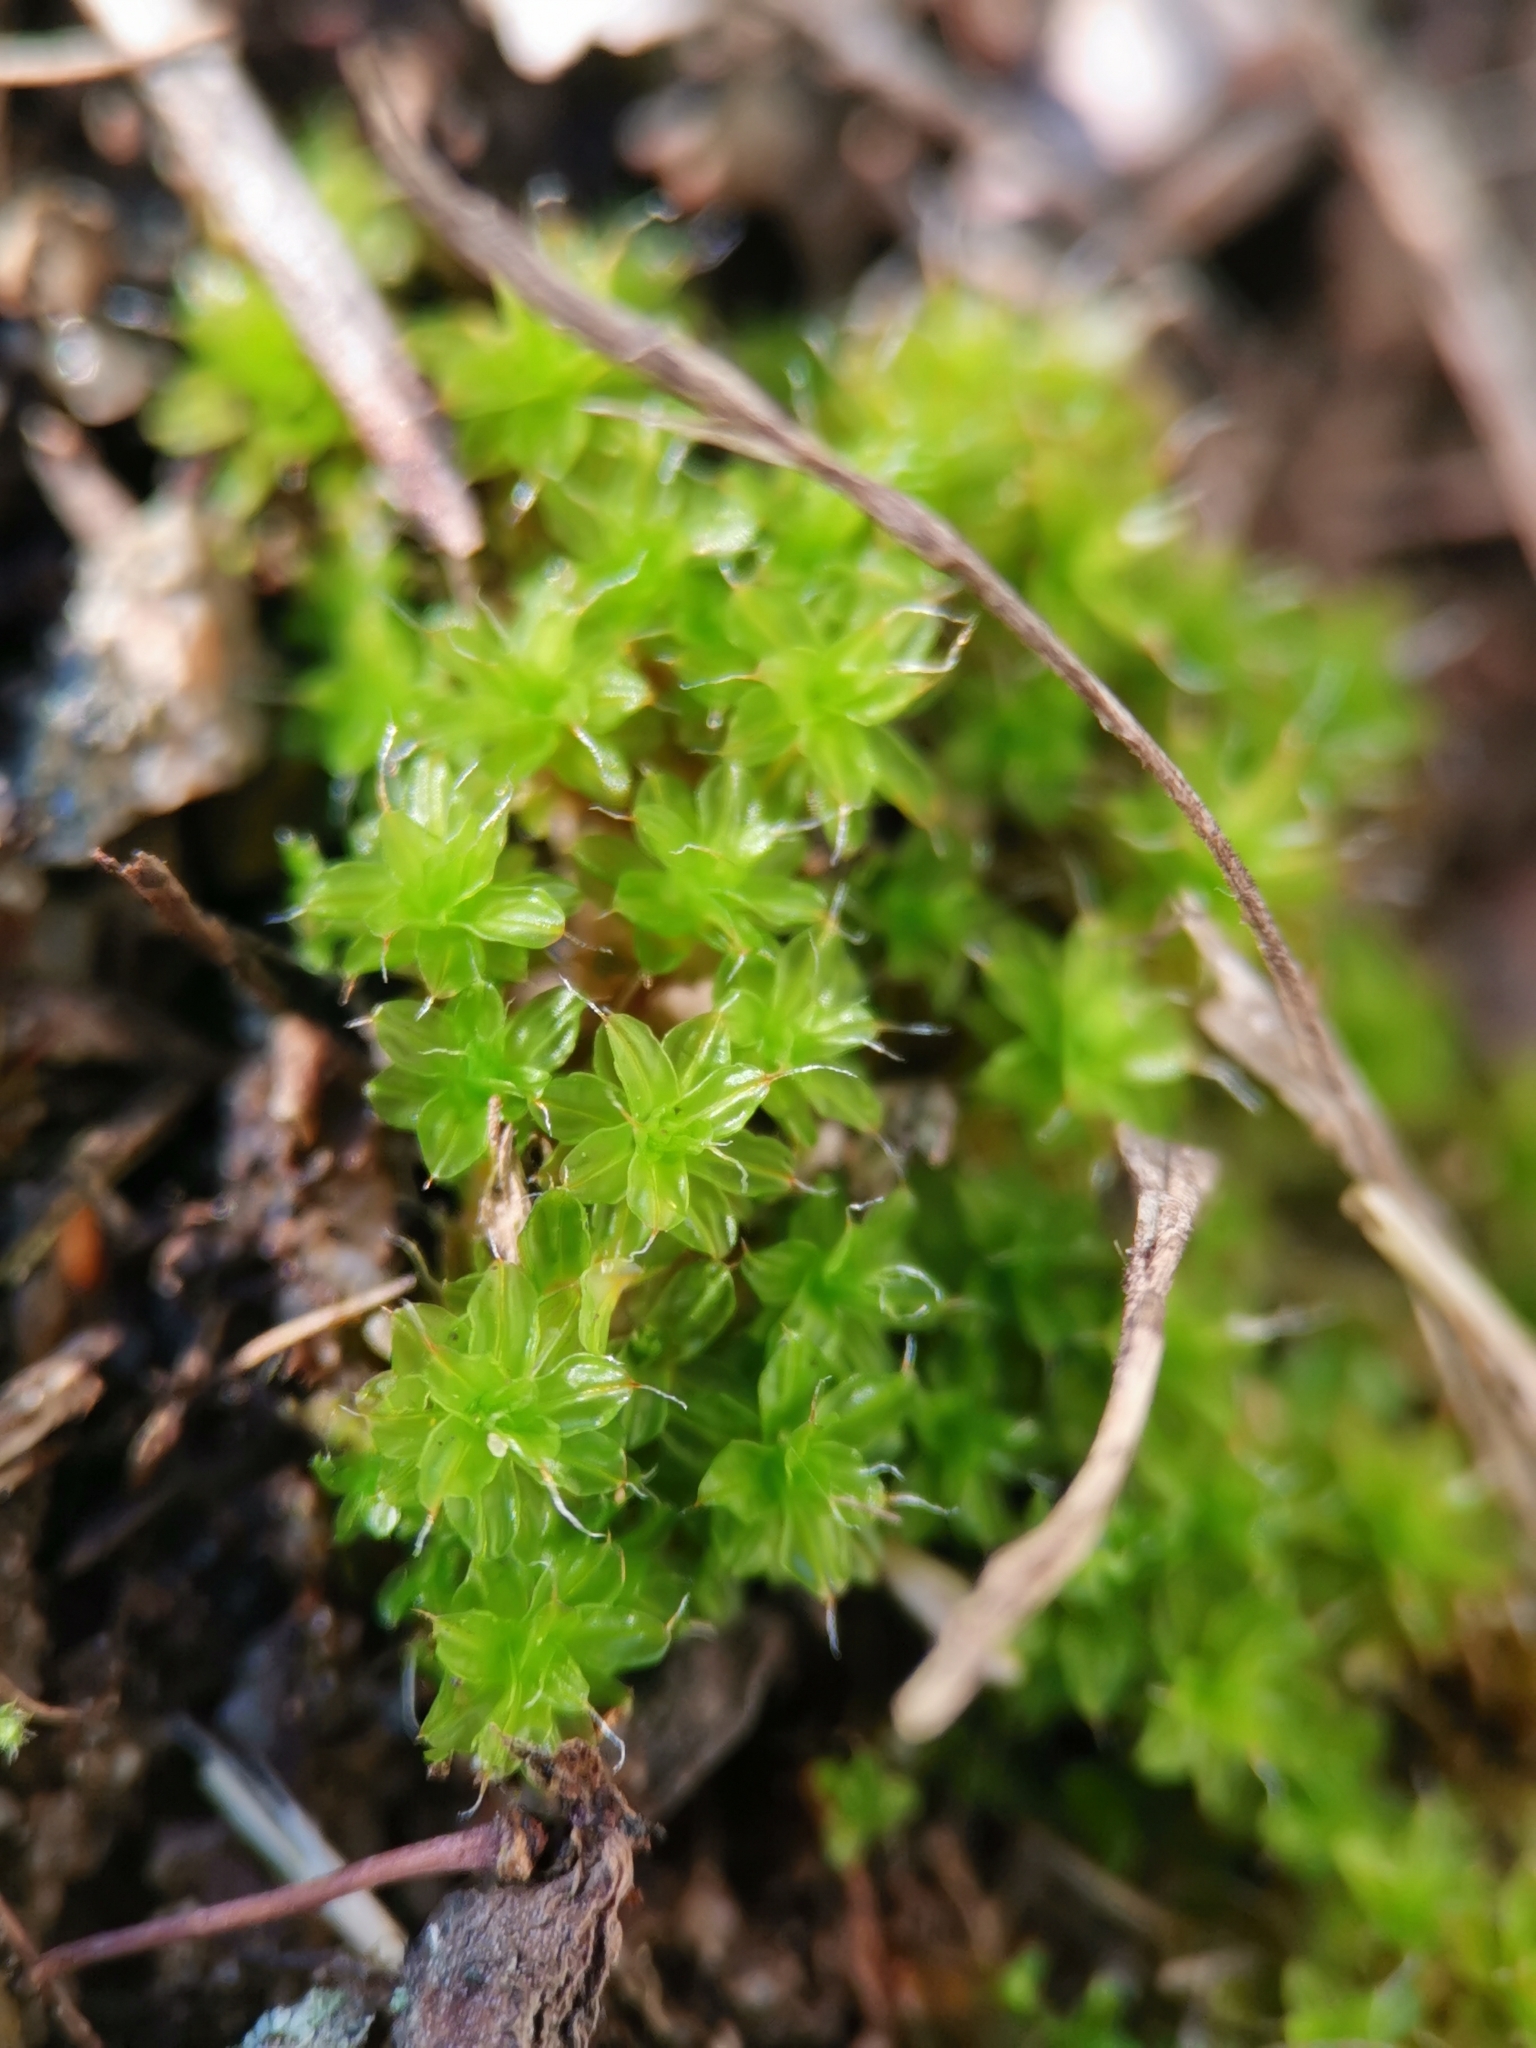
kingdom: Plantae
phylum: Bryophyta
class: Bryopsida
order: Pottiales
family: Pottiaceae
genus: Syntrichia
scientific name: Syntrichia ruralis
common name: Sidewalk screw moss
